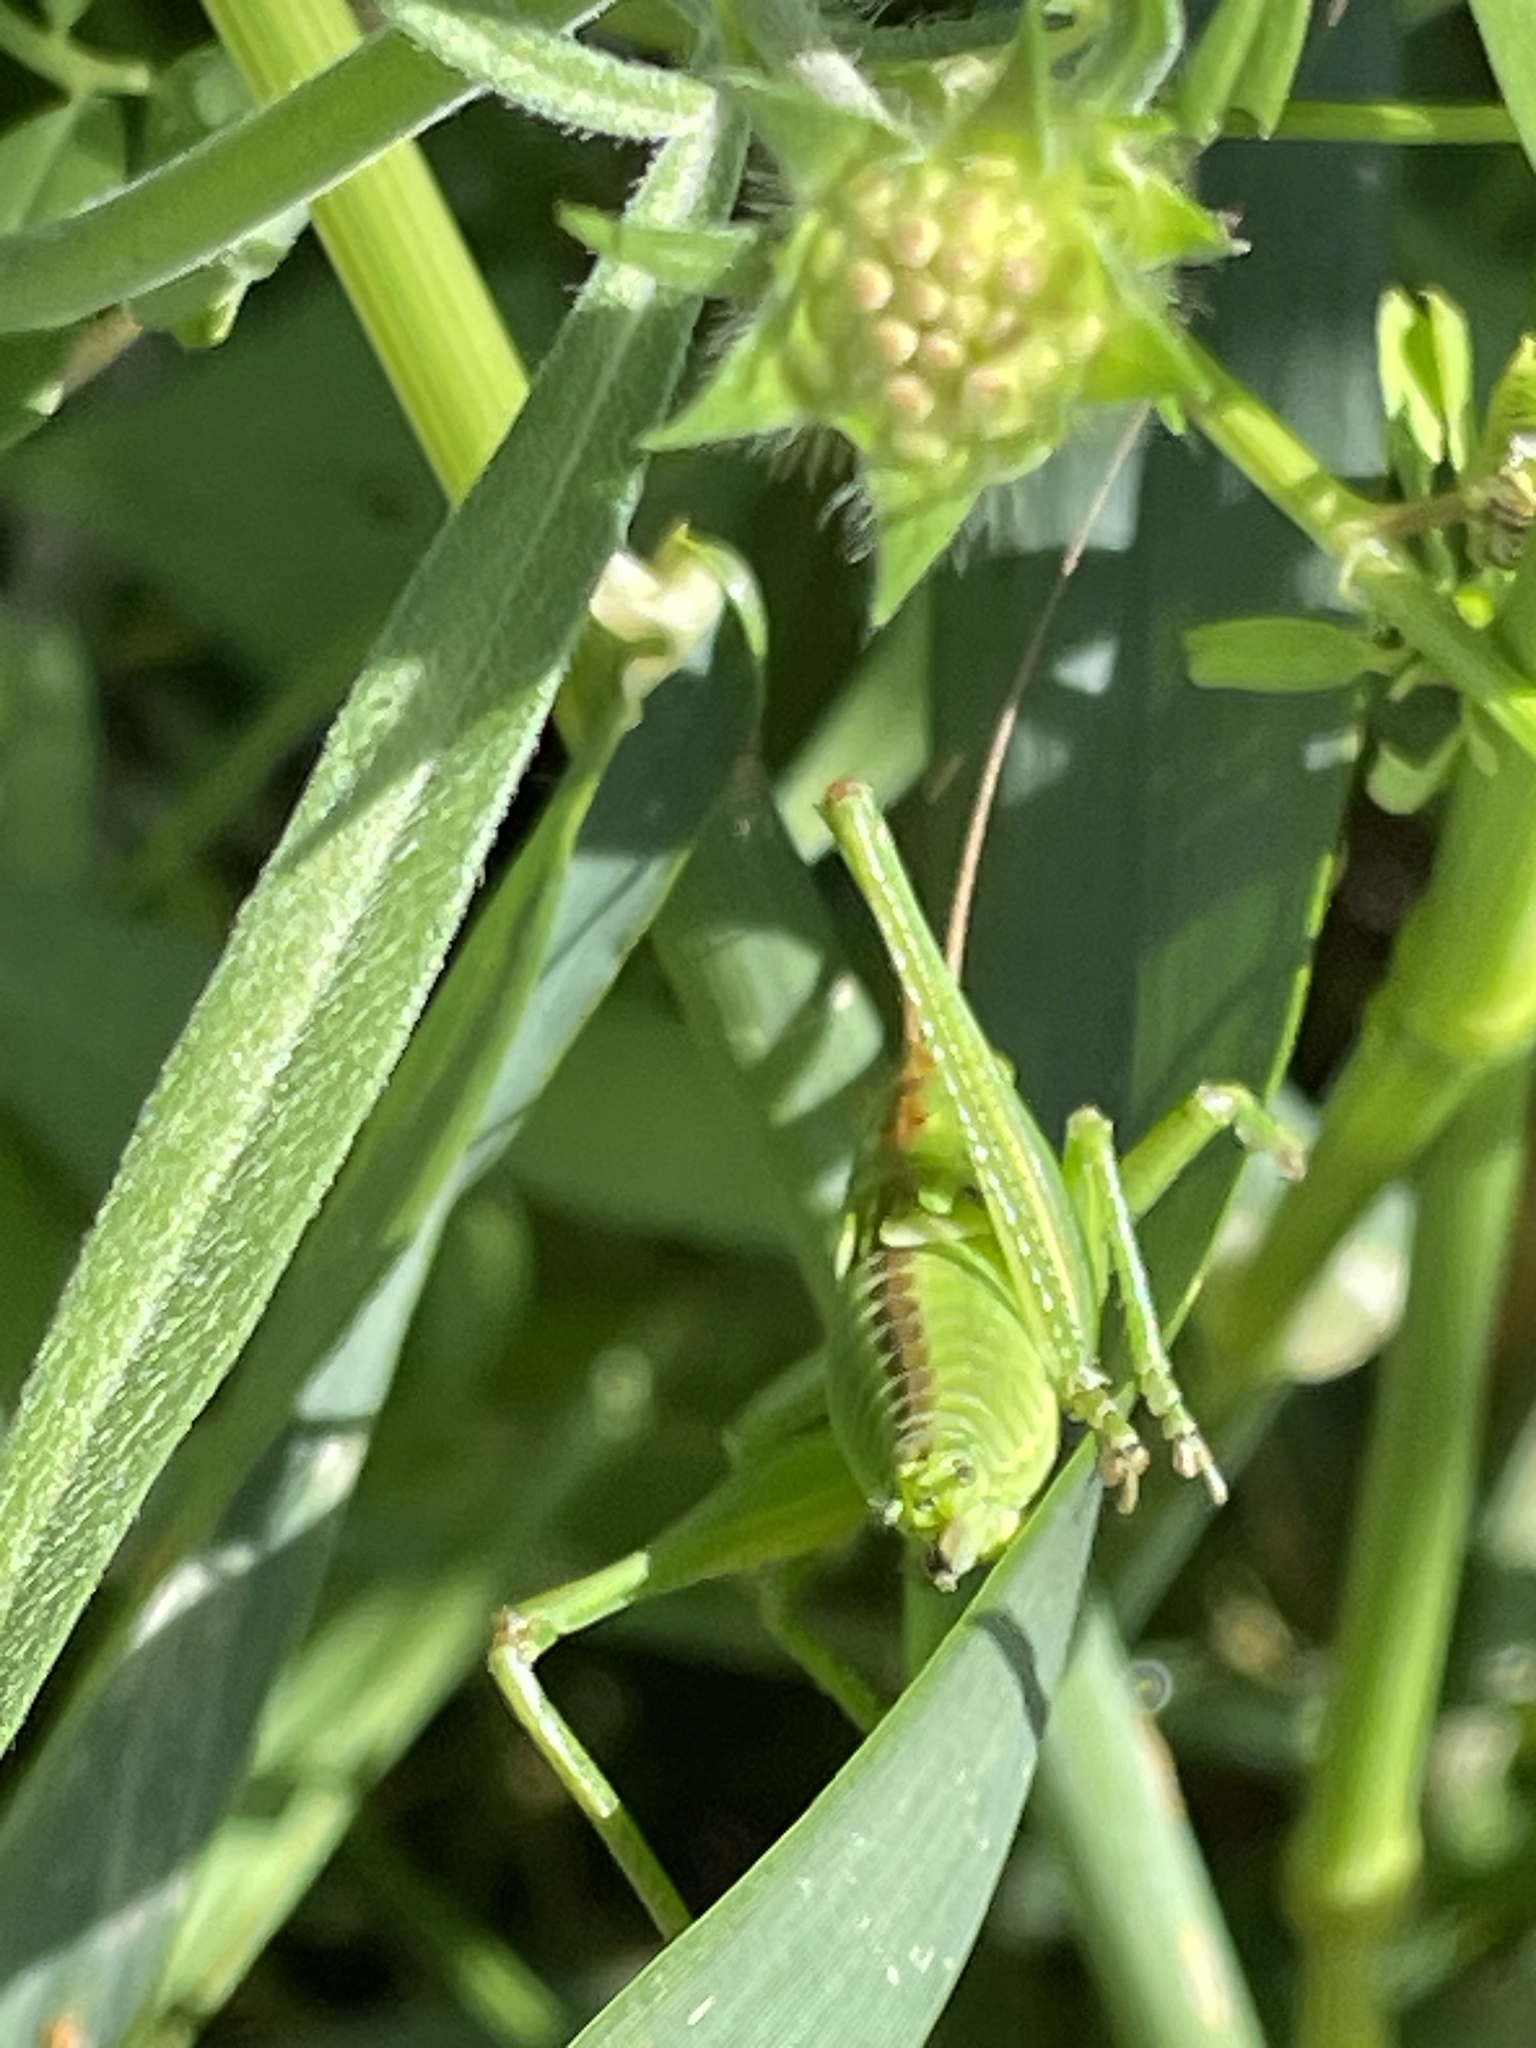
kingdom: Animalia
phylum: Arthropoda
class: Insecta
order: Orthoptera
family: Tettigoniidae
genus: Tettigonia
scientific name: Tettigonia viridissima
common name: Great green bush-cricket
